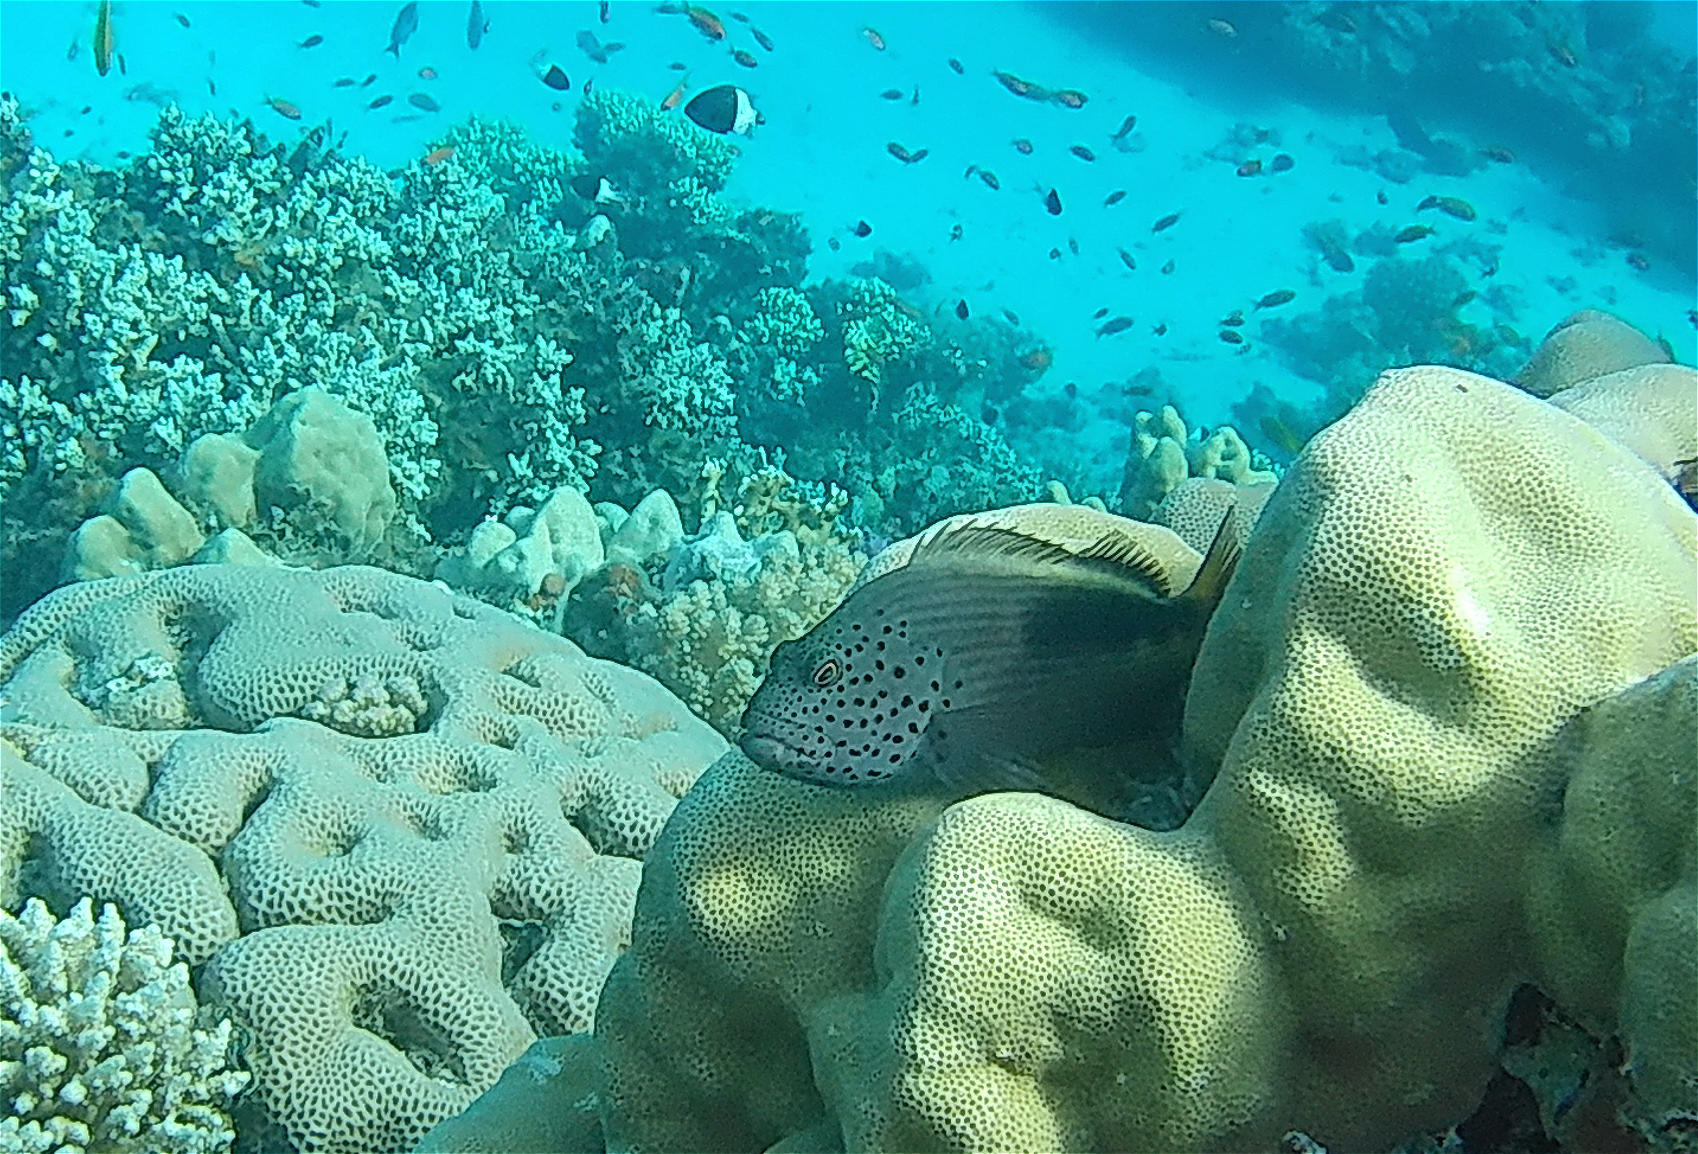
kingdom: Animalia
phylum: Chordata
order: Perciformes
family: Cirrhitidae
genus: Paracirrhites
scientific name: Paracirrhites forsteri
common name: Freckled hawkfish
